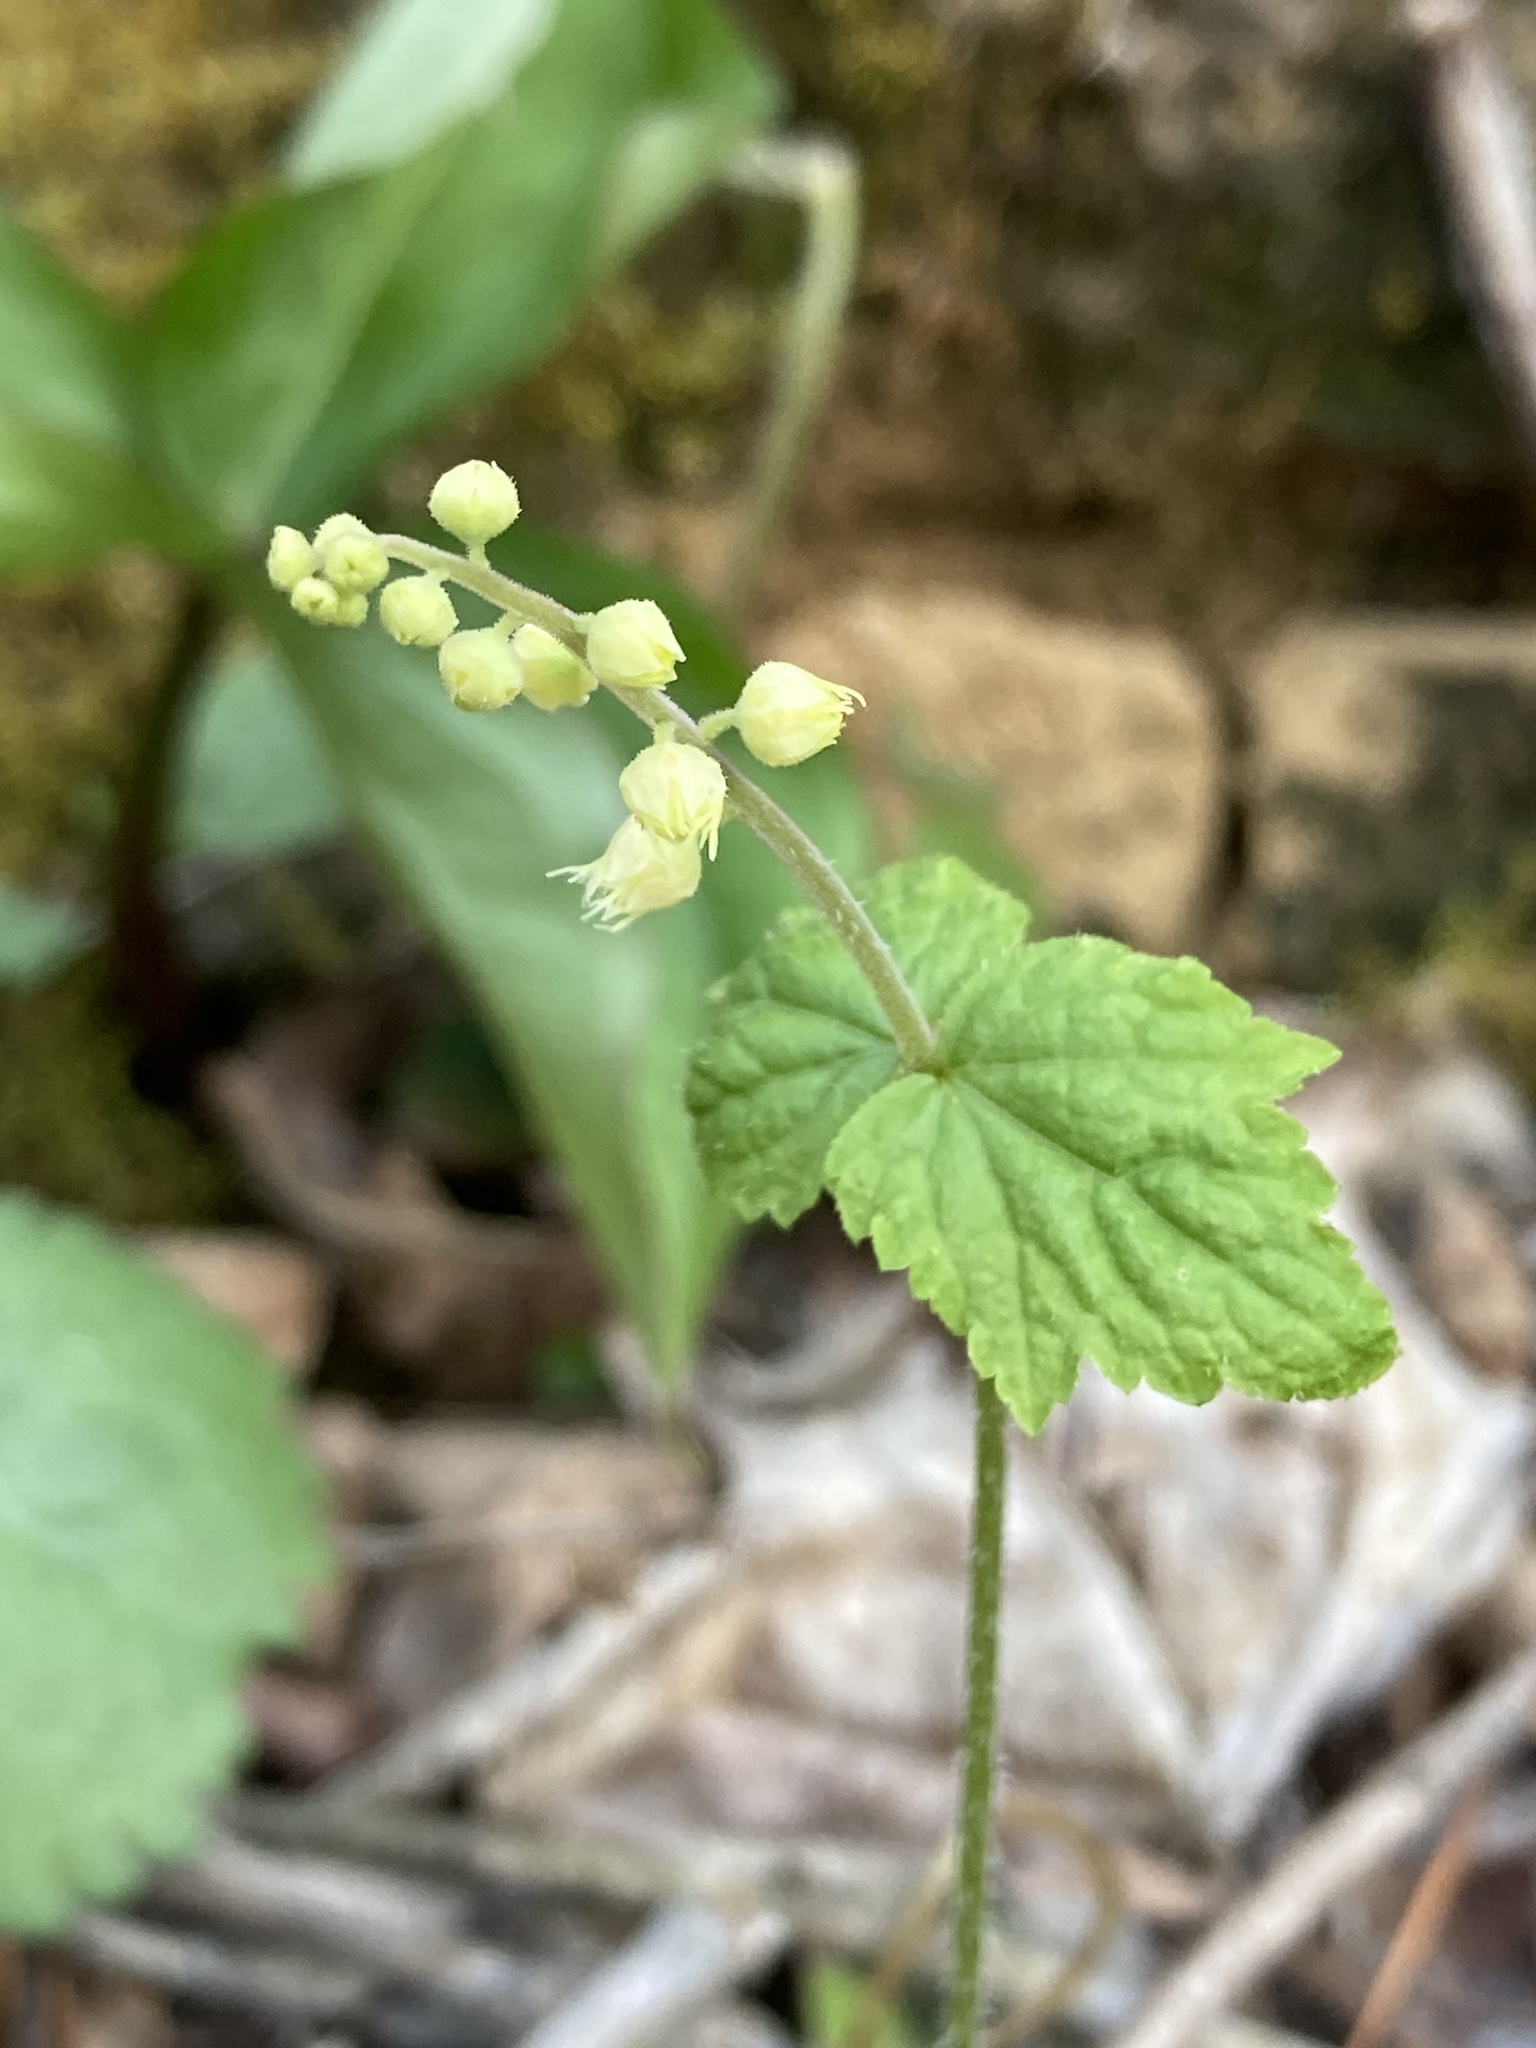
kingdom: Plantae
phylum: Tracheophyta
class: Magnoliopsida
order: Saxifragales
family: Saxifragaceae
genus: Mitella
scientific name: Mitella diphylla
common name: Coolwort
